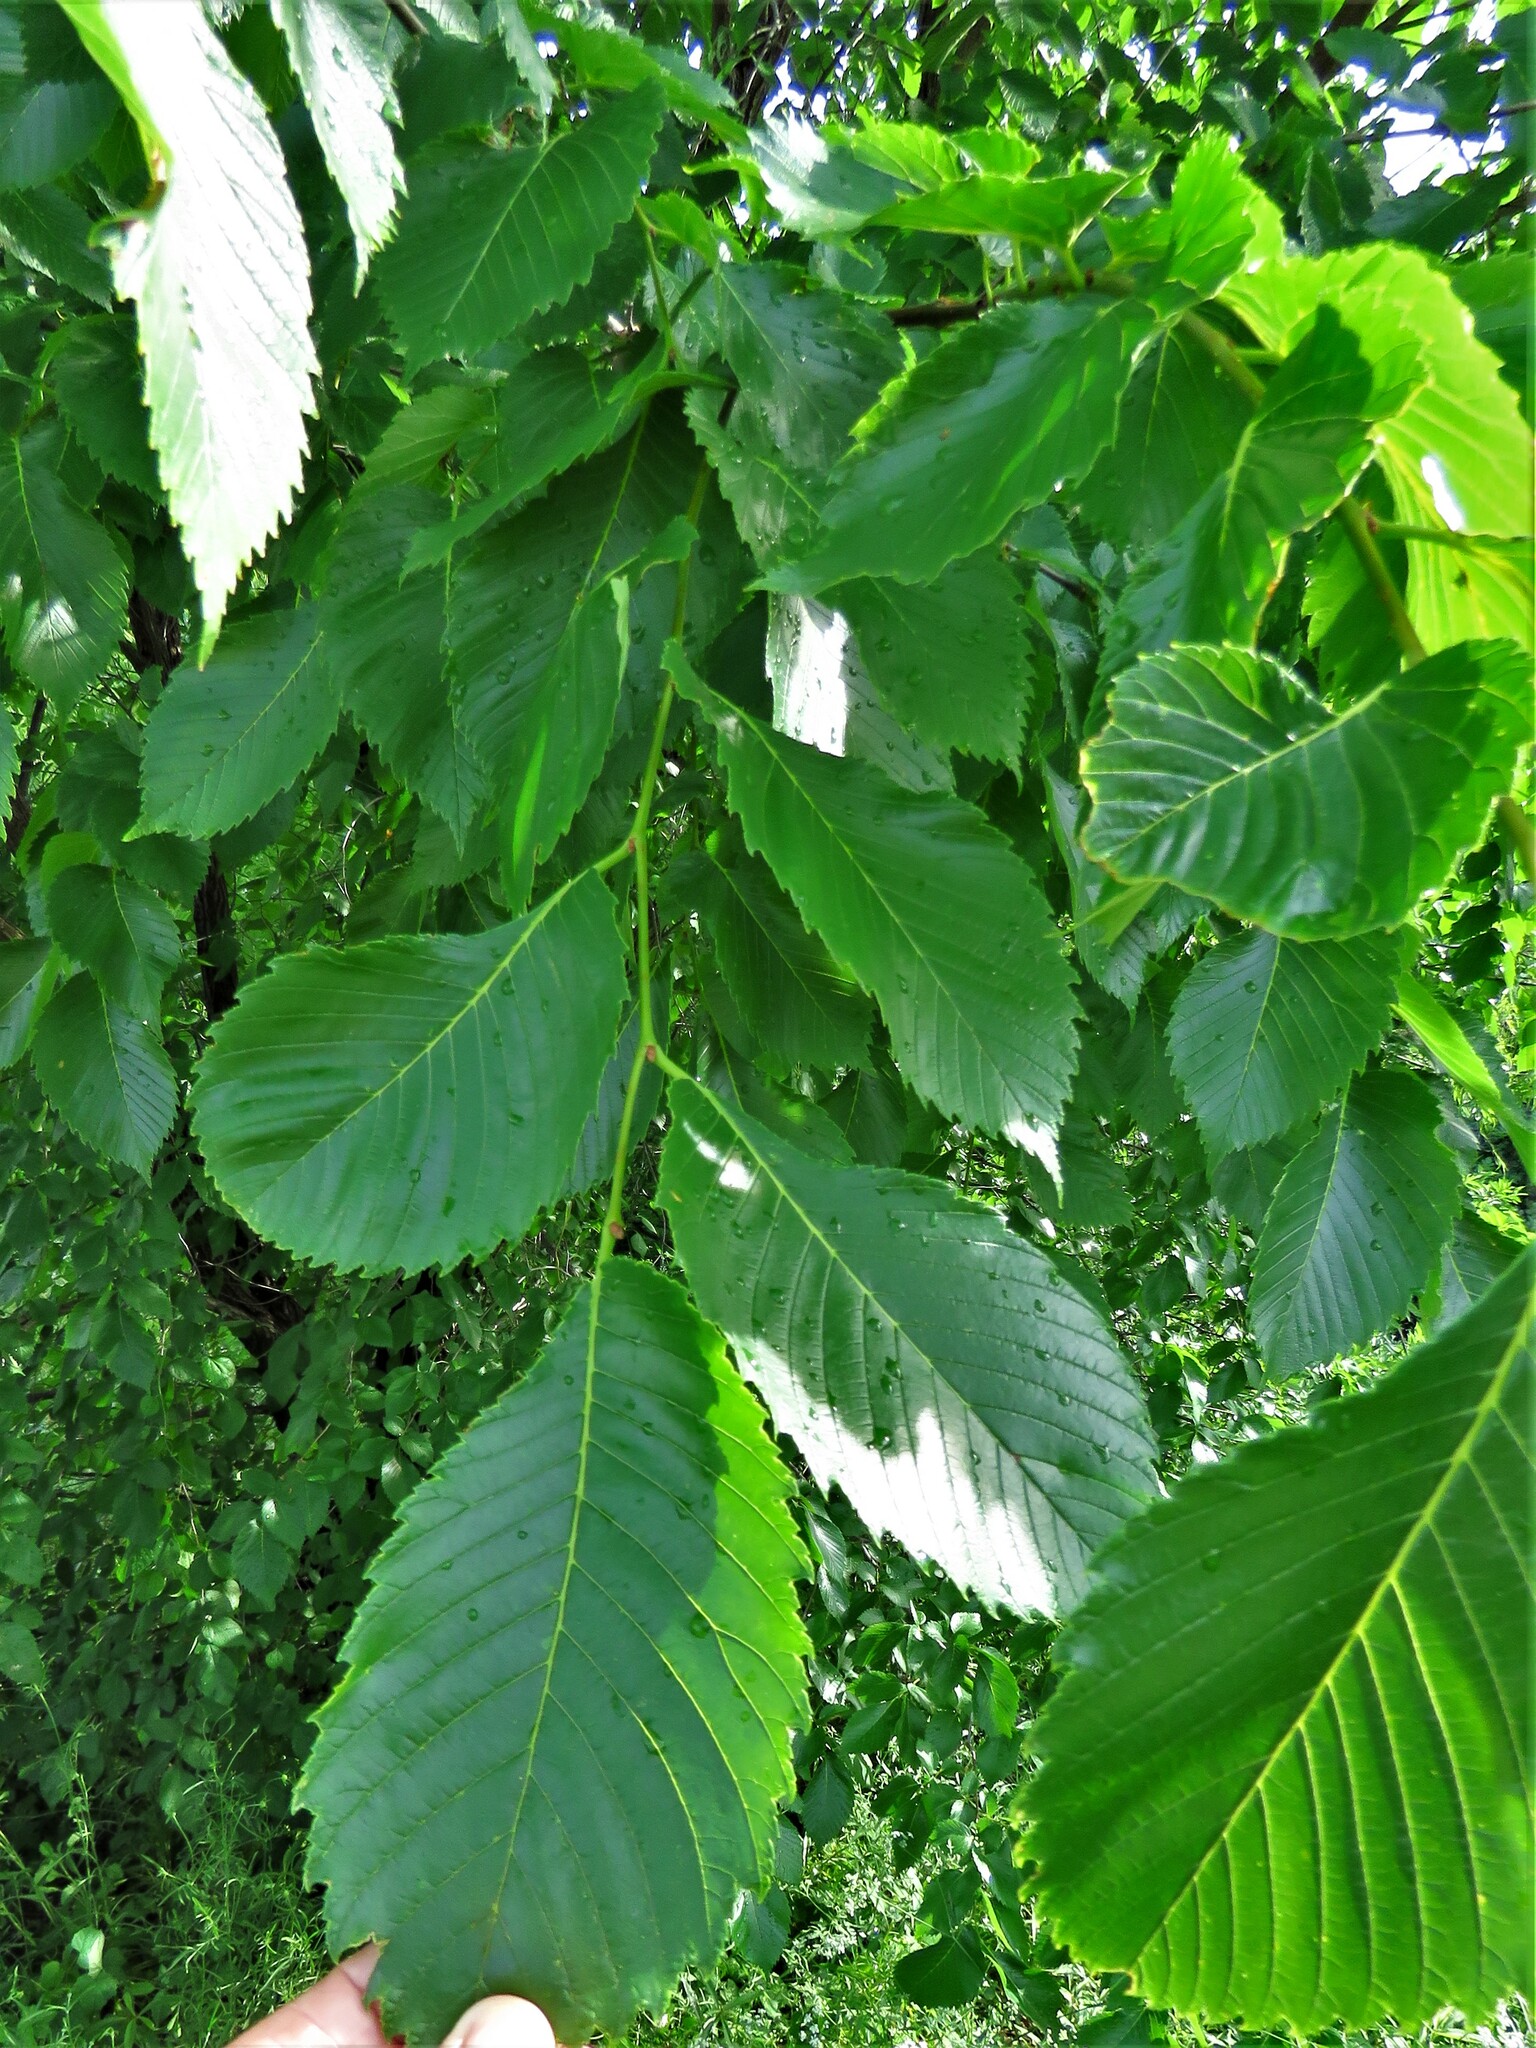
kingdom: Plantae
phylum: Tracheophyta
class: Magnoliopsida
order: Rosales
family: Ulmaceae
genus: Ulmus
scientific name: Ulmus americana
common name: American elm
